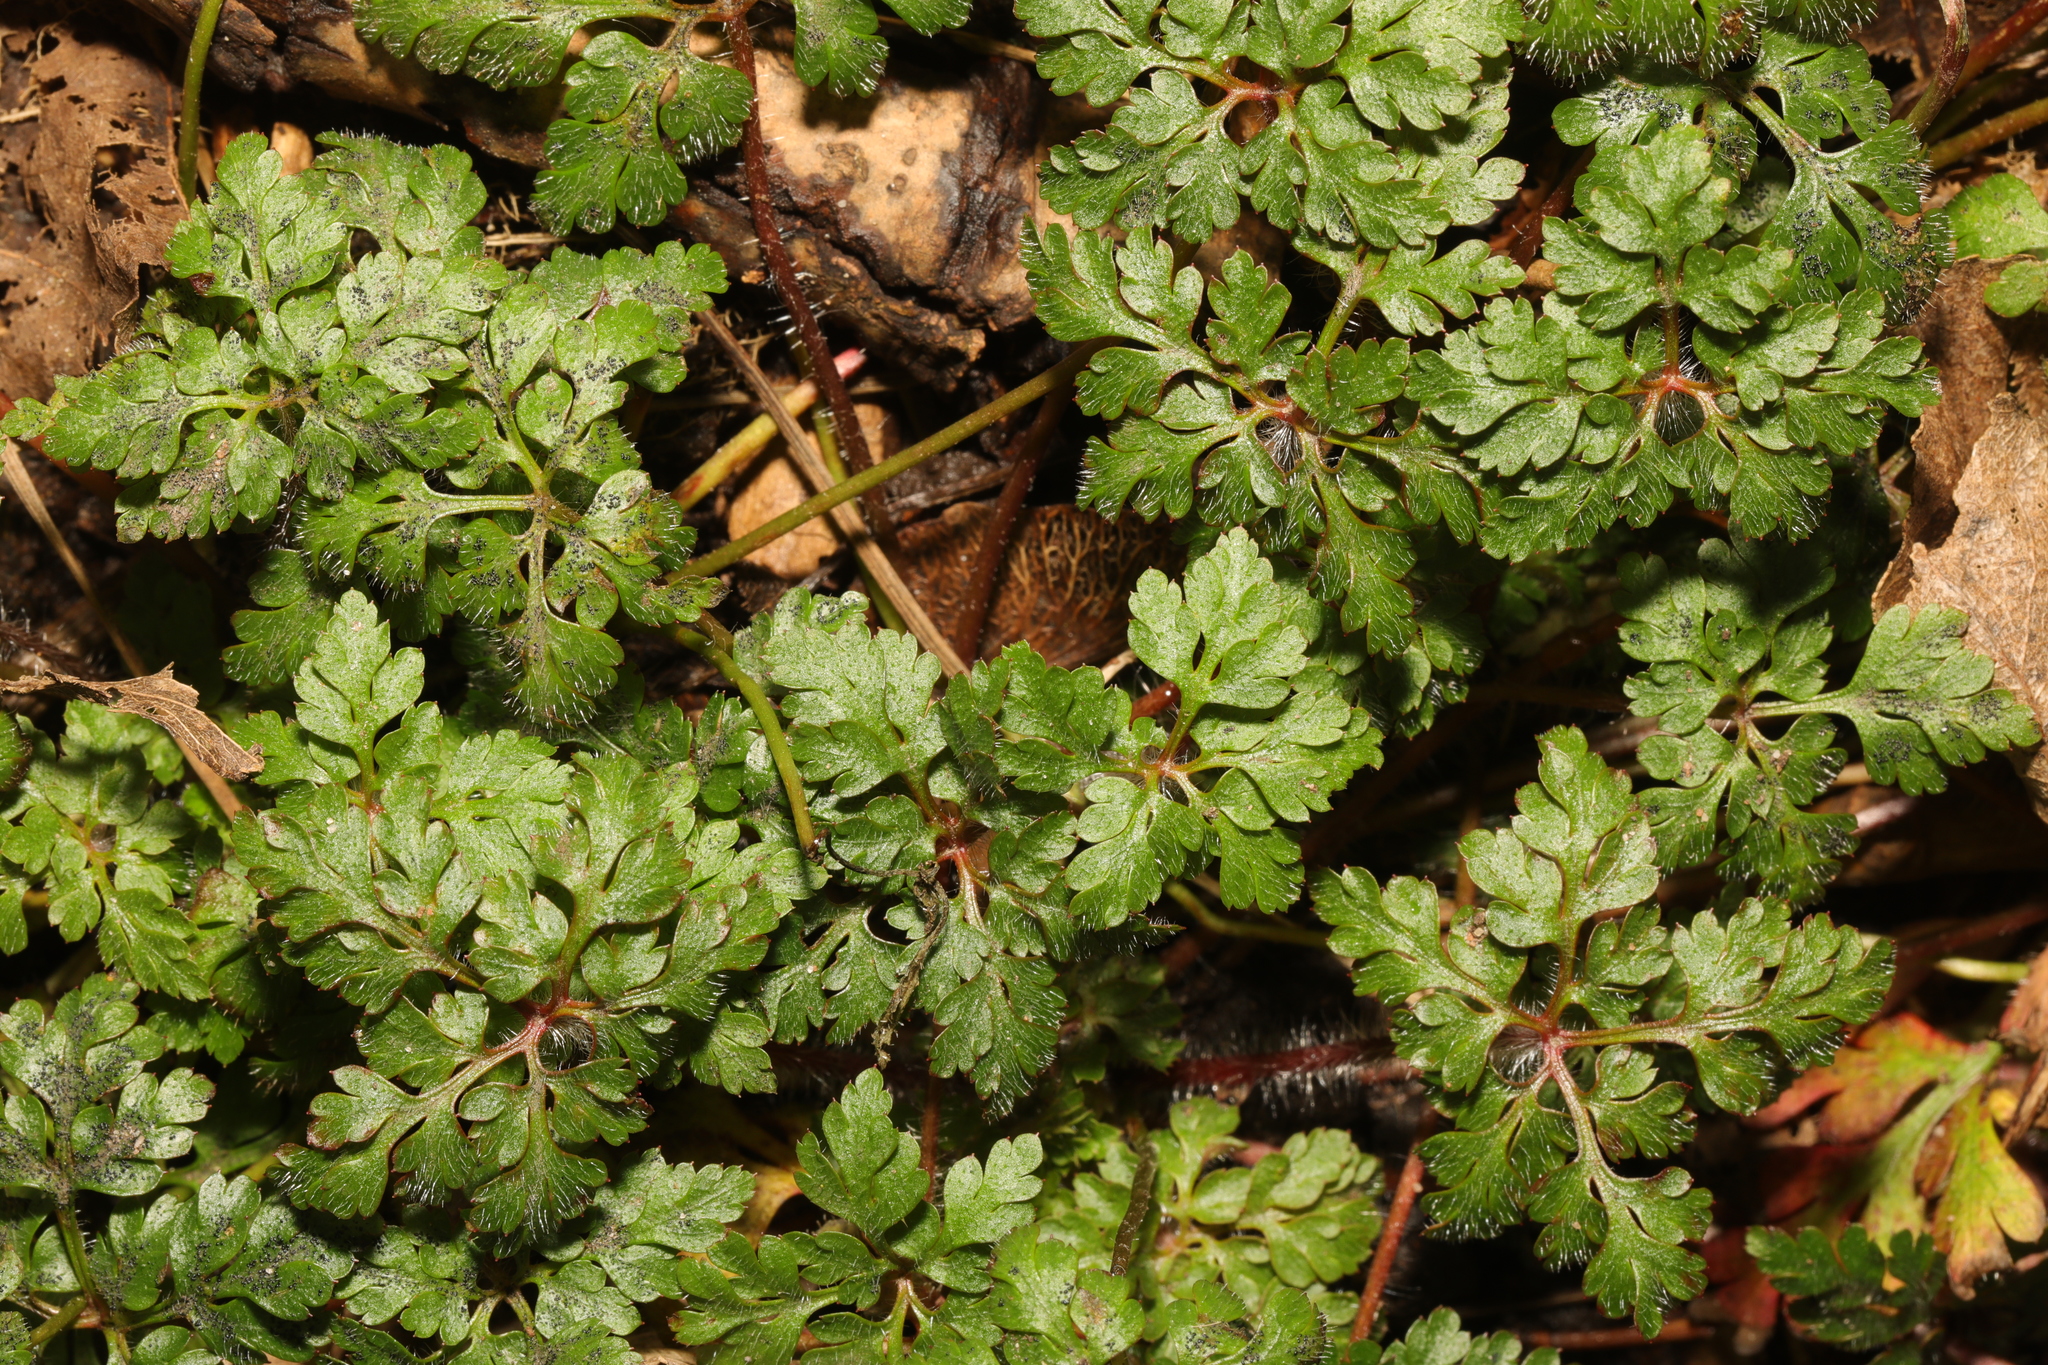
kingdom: Plantae
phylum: Tracheophyta
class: Magnoliopsida
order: Geraniales
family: Geraniaceae
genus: Geranium
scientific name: Geranium robertianum
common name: Herb-robert
